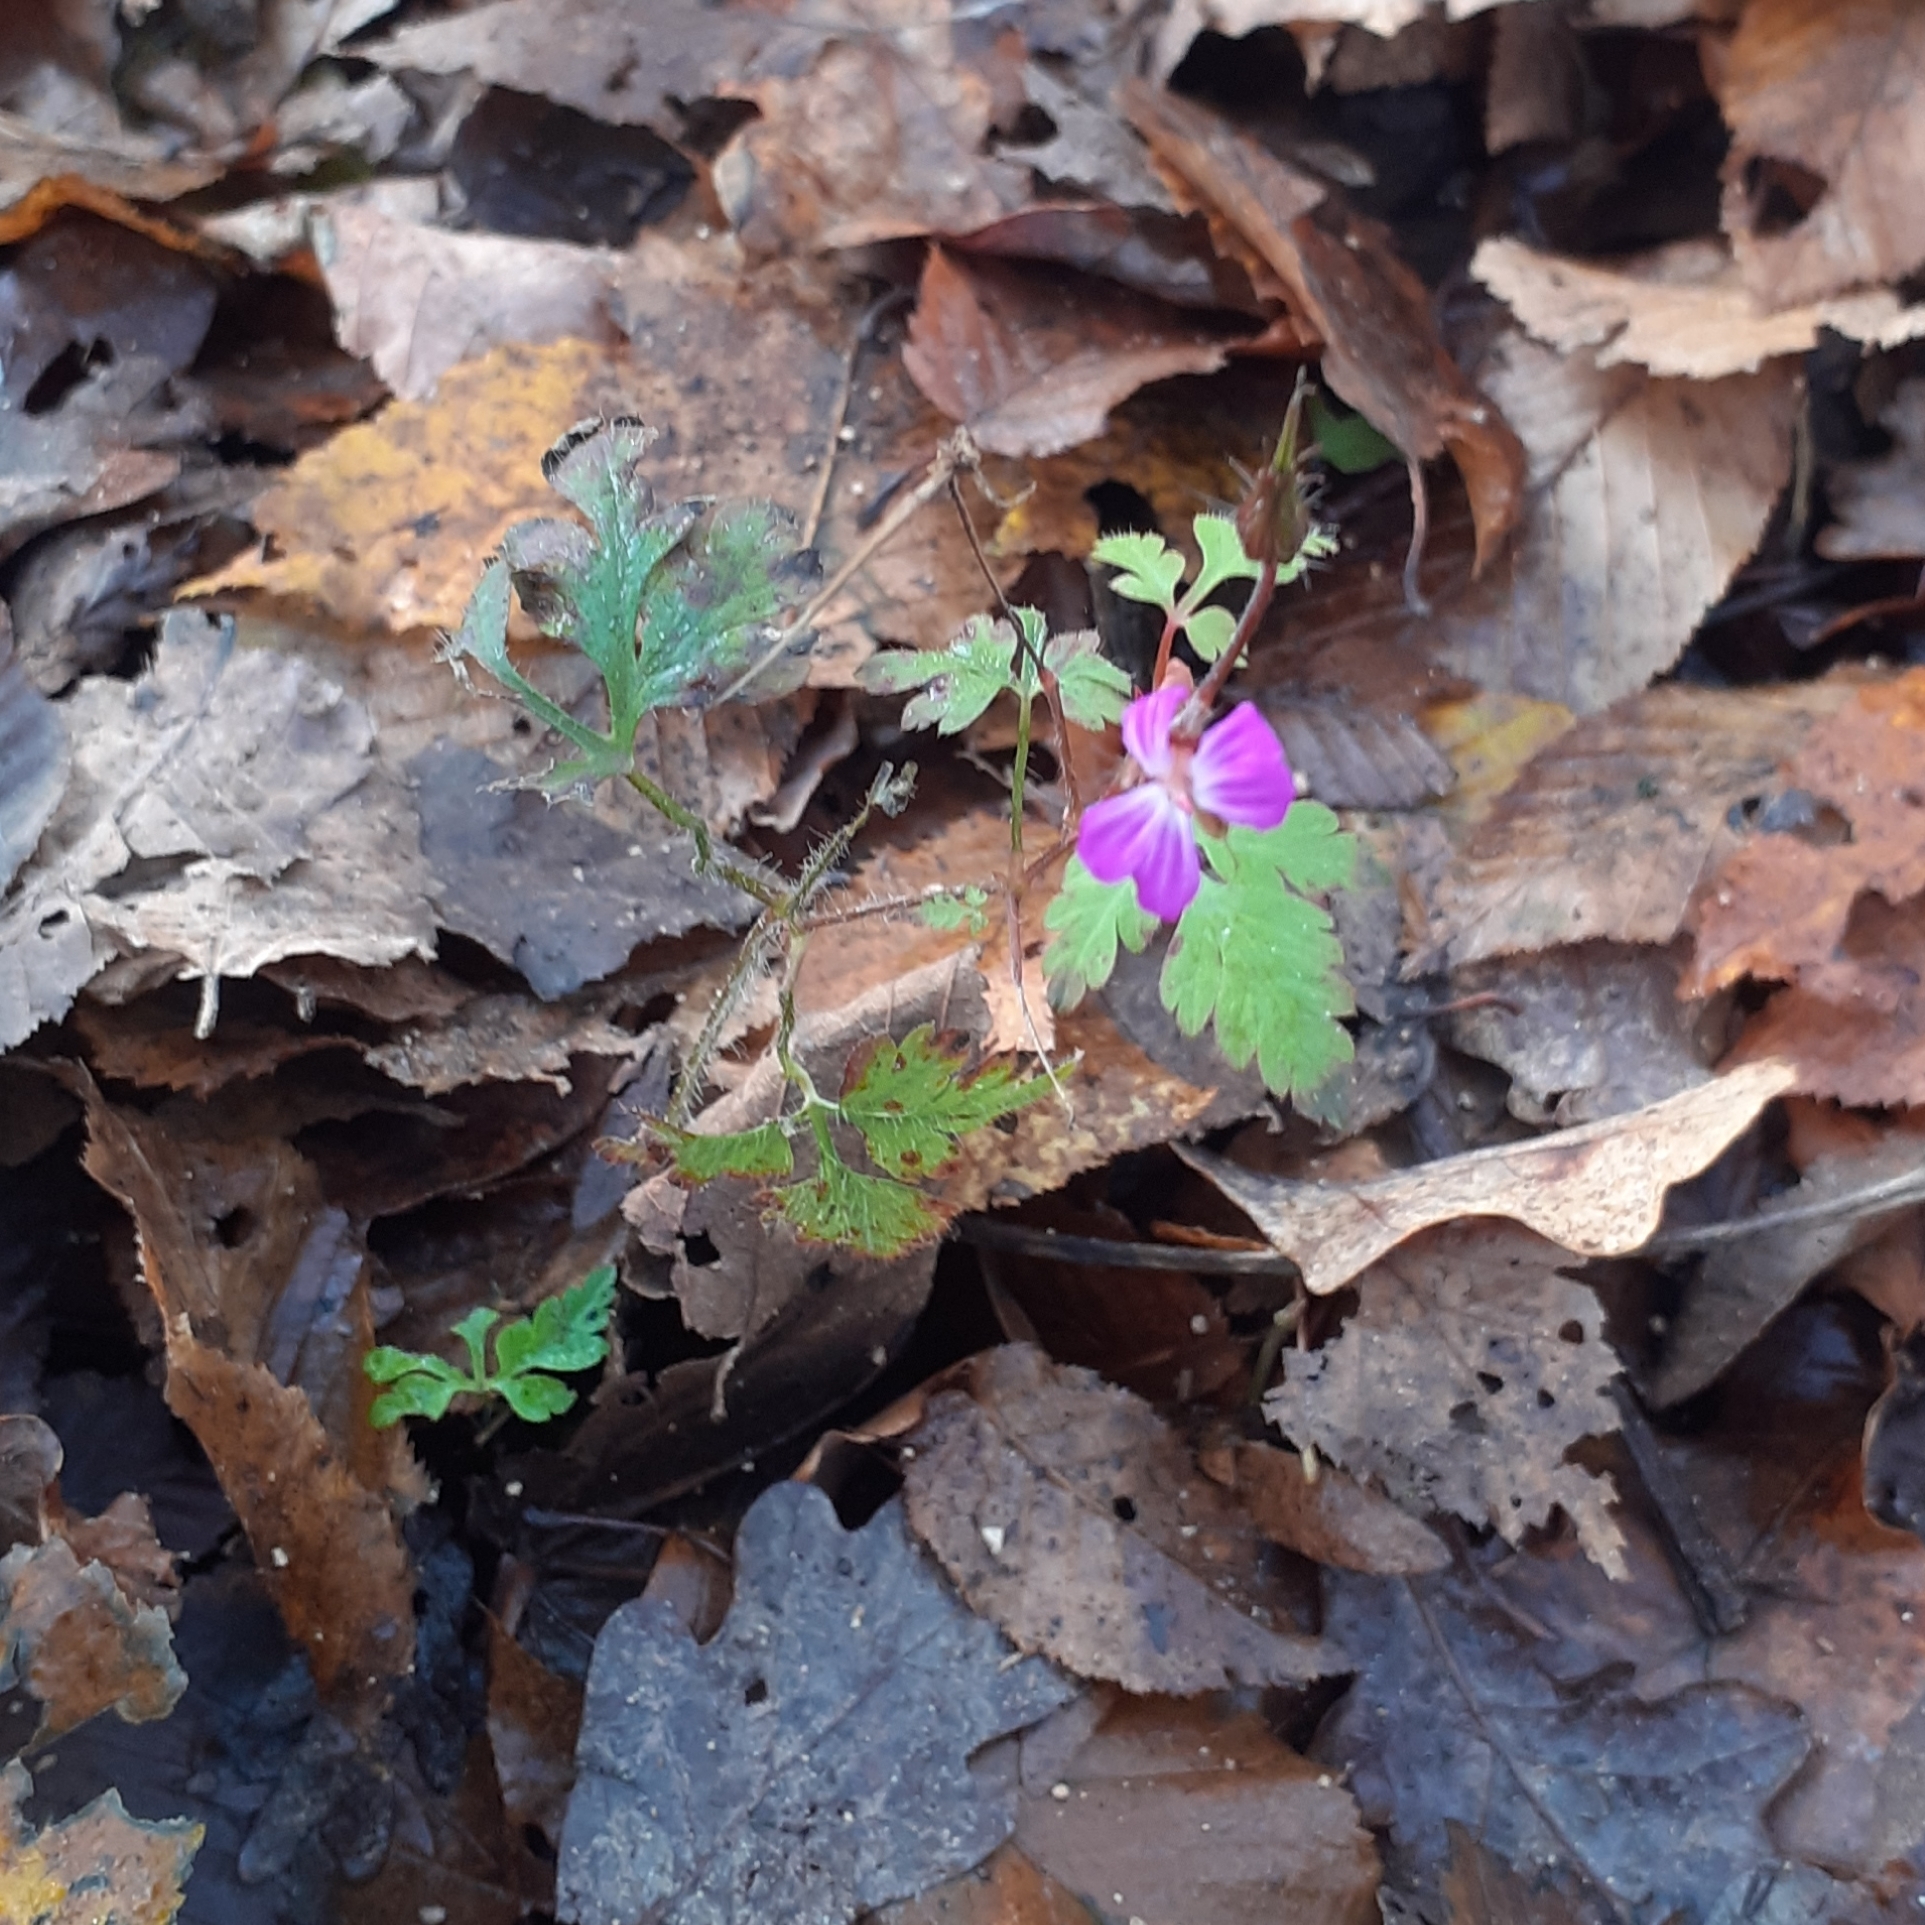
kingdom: Plantae
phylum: Tracheophyta
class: Magnoliopsida
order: Geraniales
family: Geraniaceae
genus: Geranium
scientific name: Geranium robertianum
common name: Herb-robert
